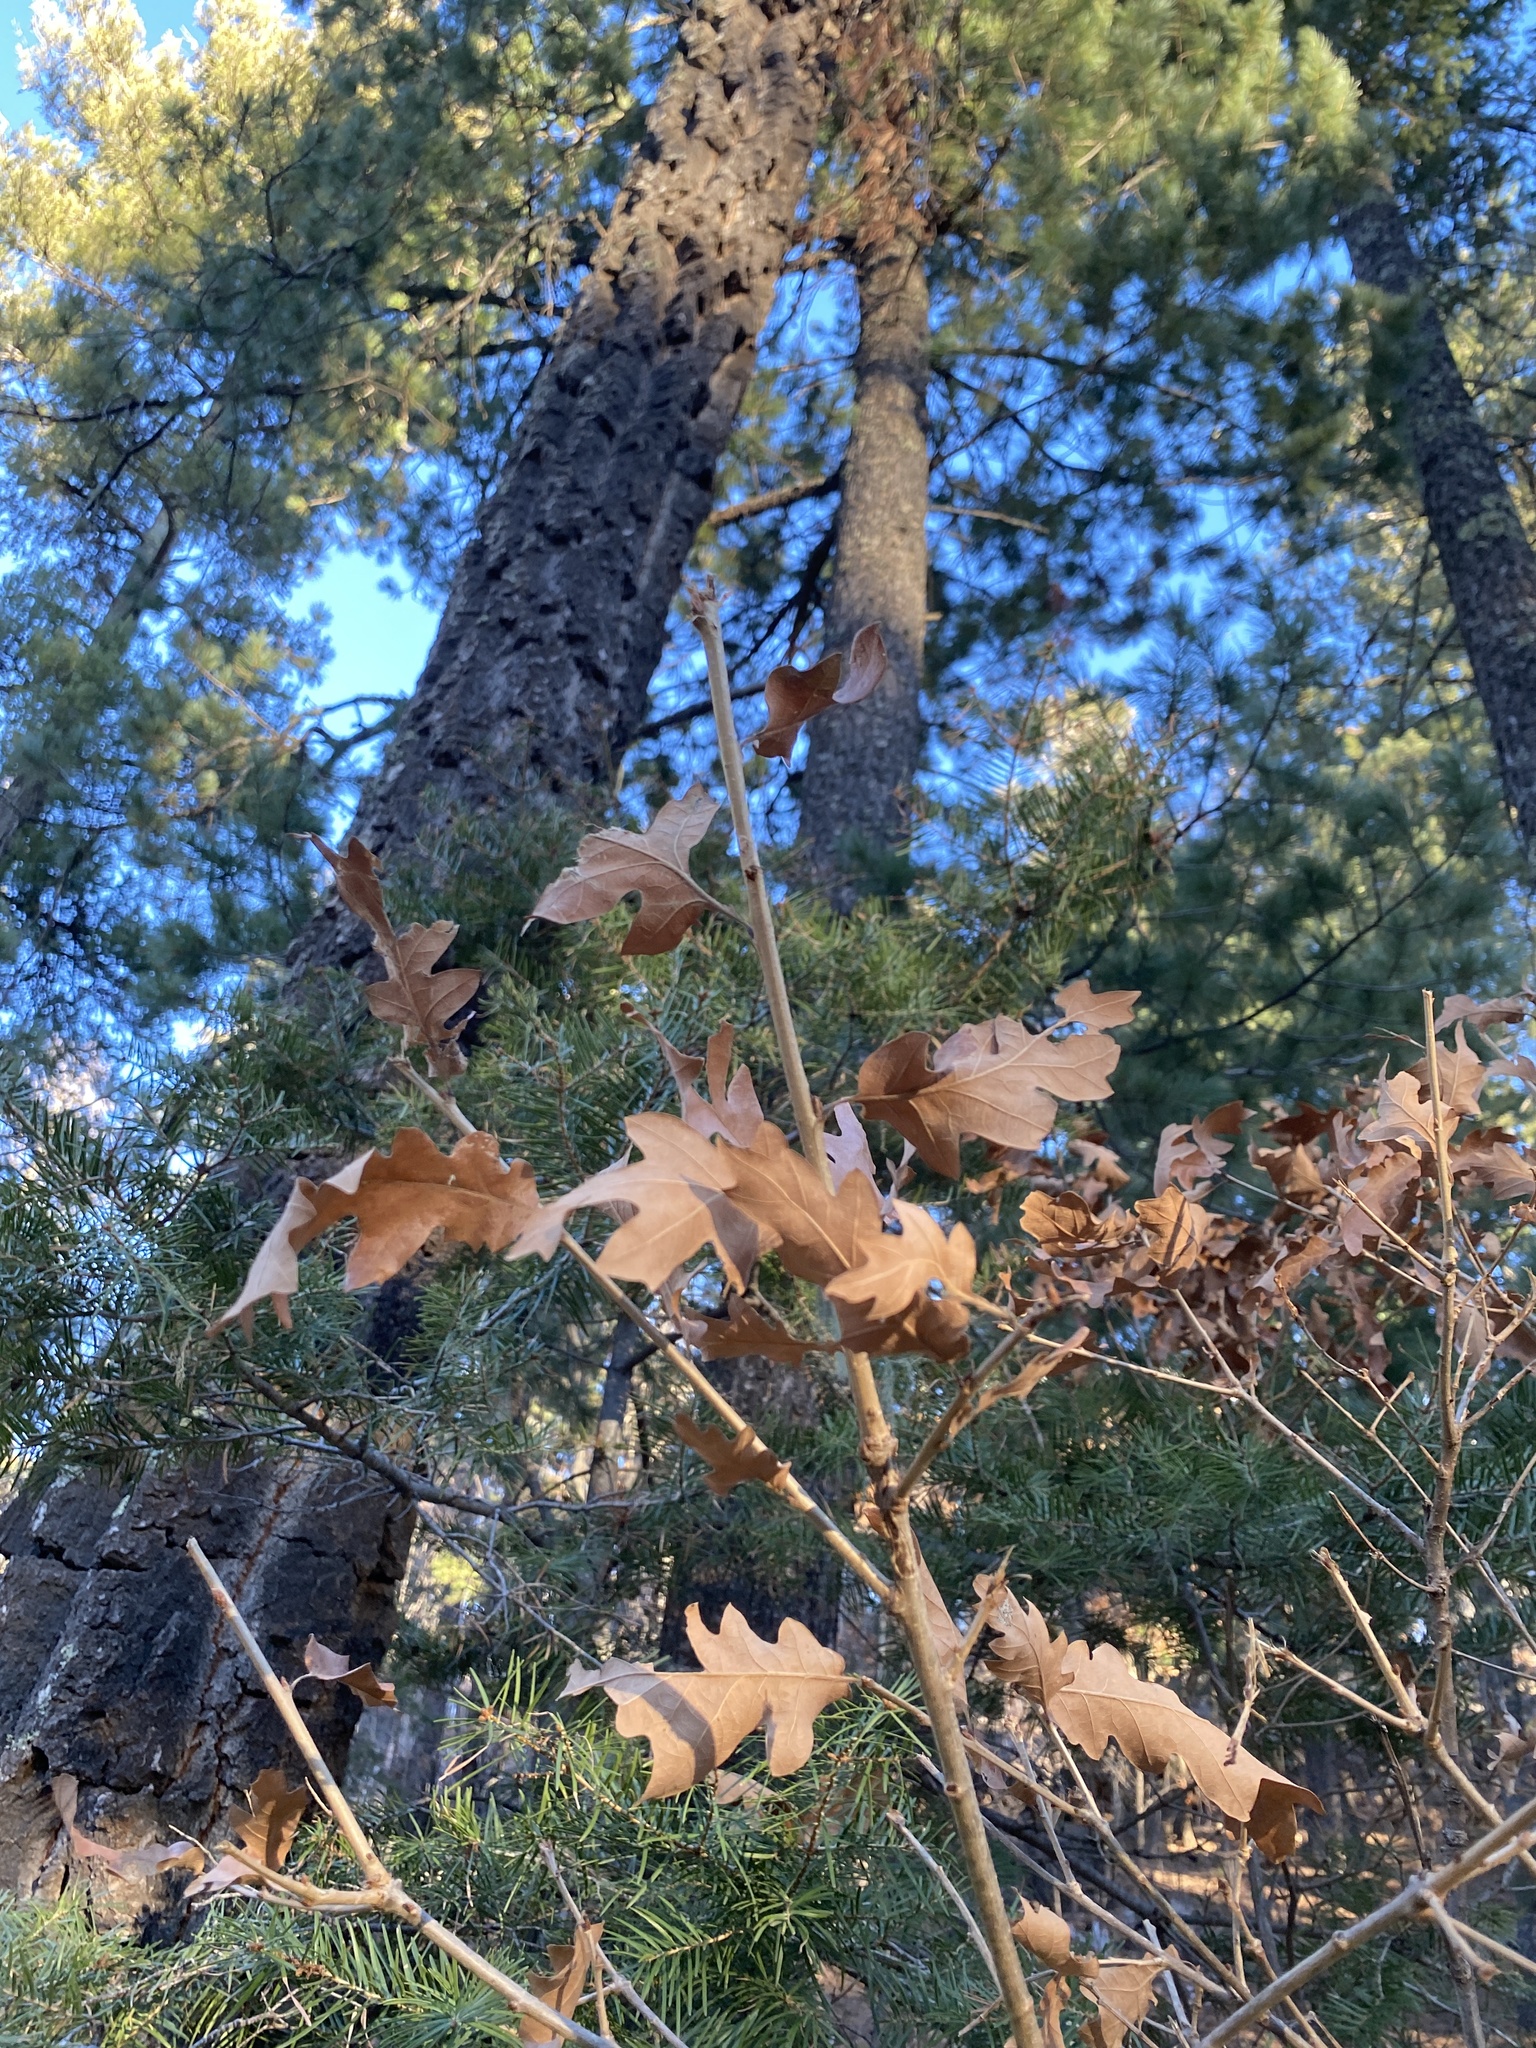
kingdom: Plantae
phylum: Tracheophyta
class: Magnoliopsida
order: Fagales
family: Fagaceae
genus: Quercus
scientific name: Quercus gambelii
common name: Gambel oak
